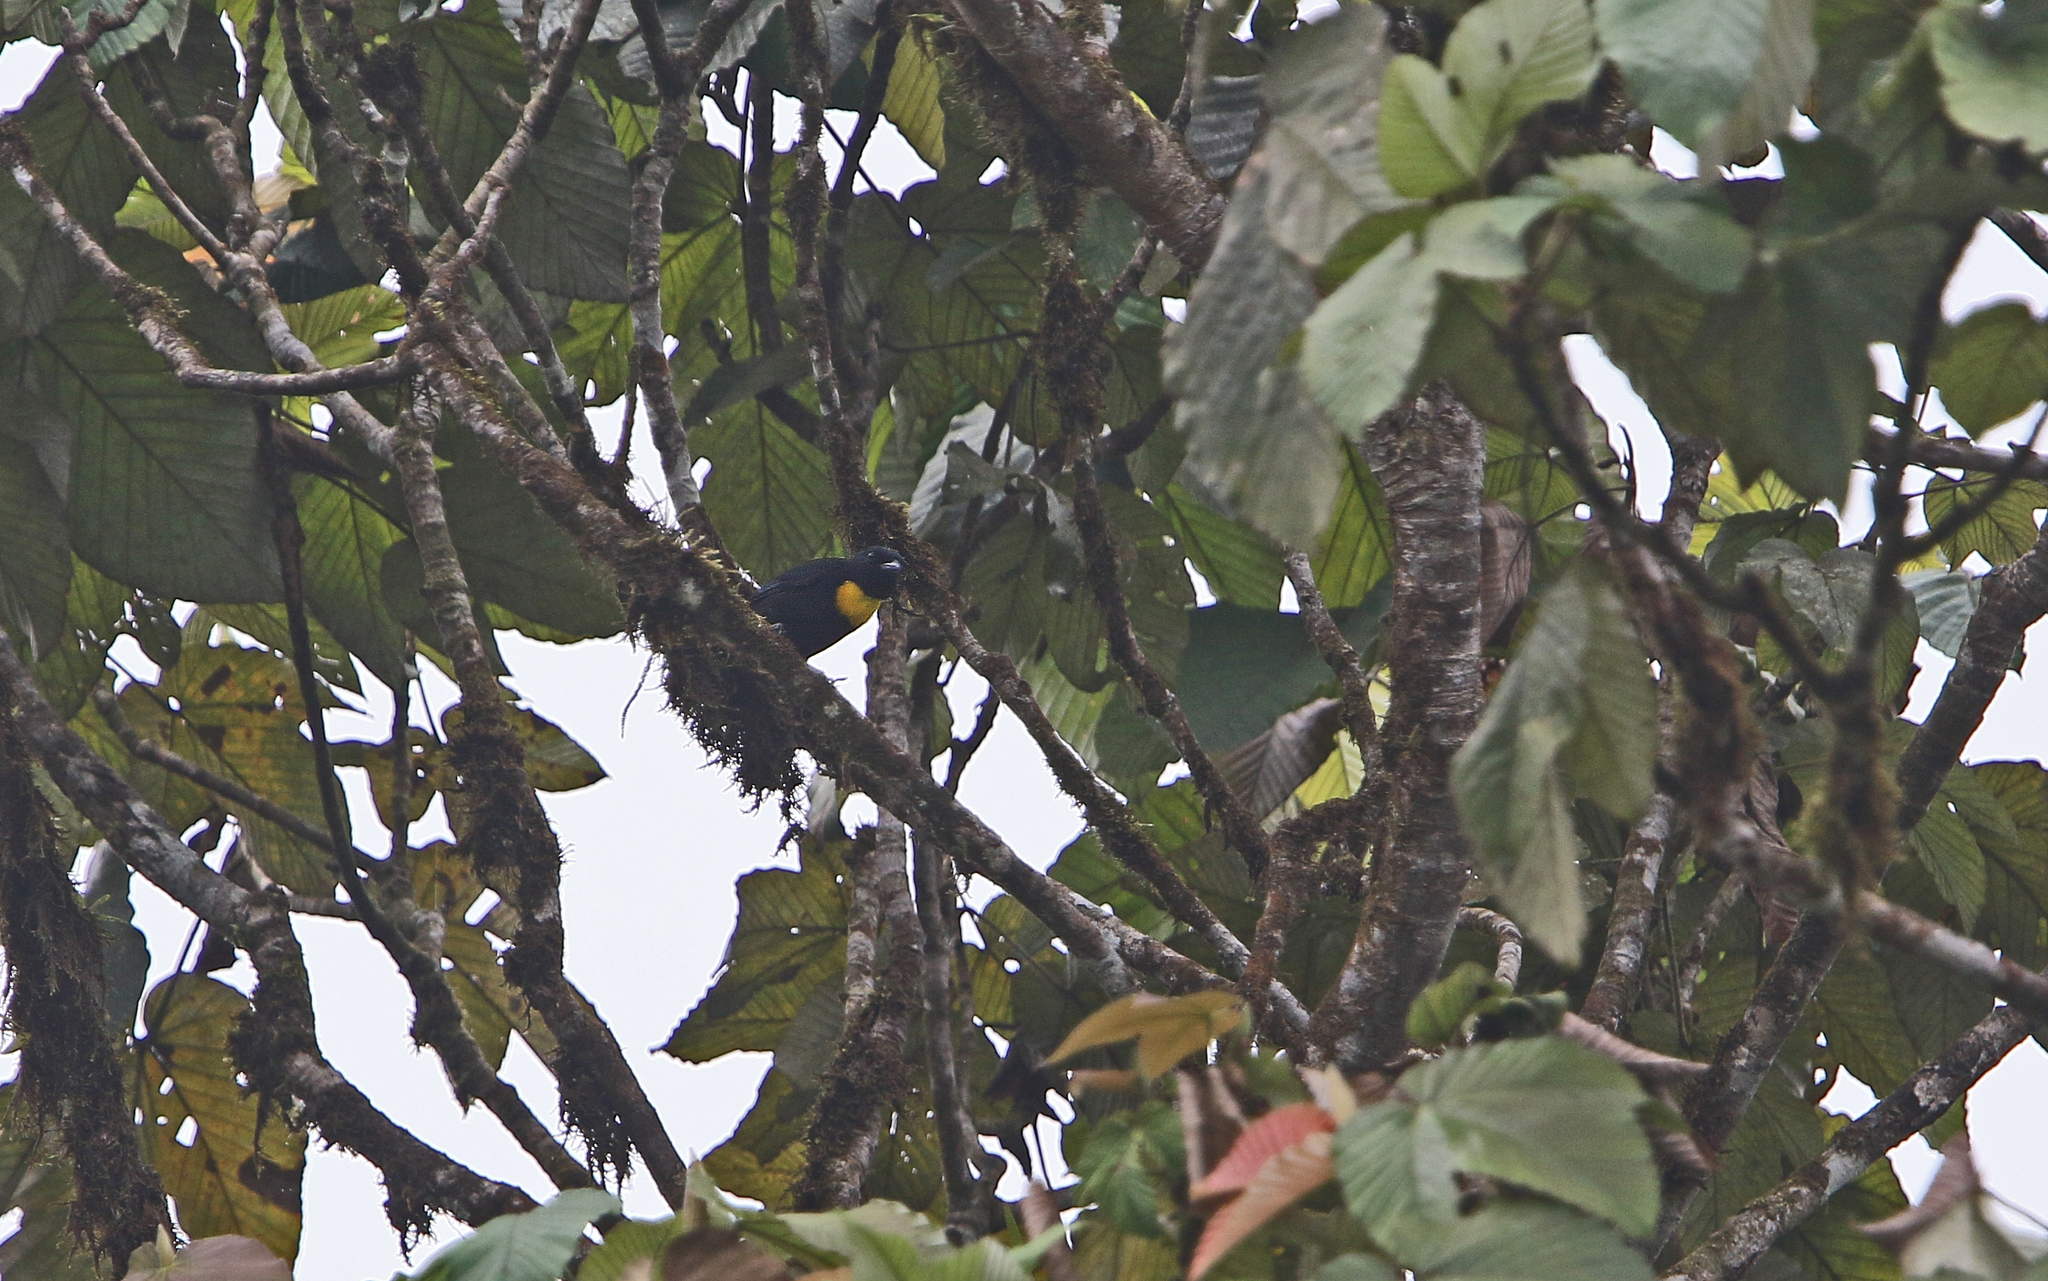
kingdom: Animalia
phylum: Chordata
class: Aves
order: Passeriformes
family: Thraupidae
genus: Bangsia
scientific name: Bangsia rothschildi
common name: Golden-chested tanager
